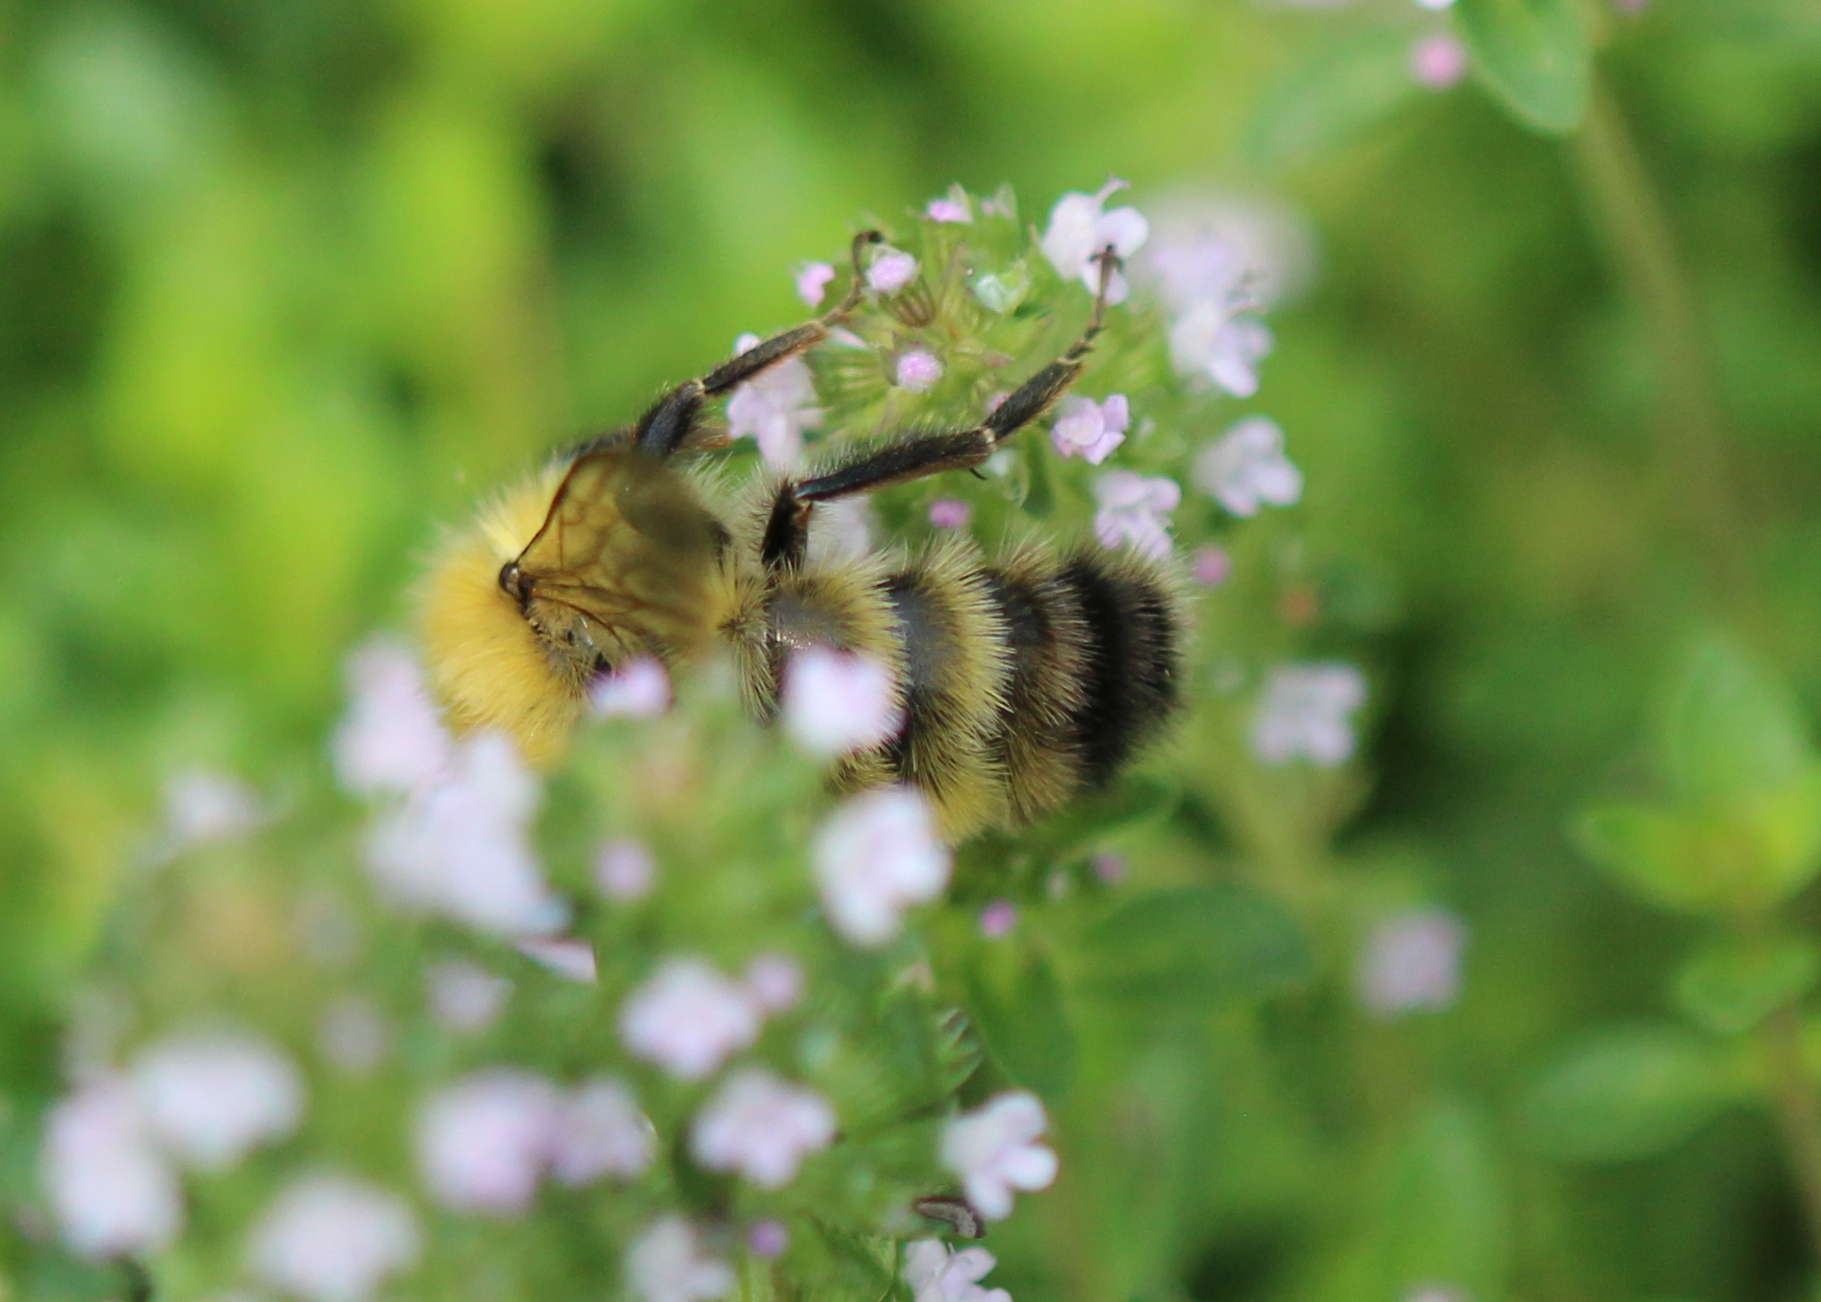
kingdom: Animalia
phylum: Arthropoda
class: Insecta
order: Hymenoptera
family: Apidae
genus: Bombus
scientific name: Bombus perplexus
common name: Confusing bumble bee
